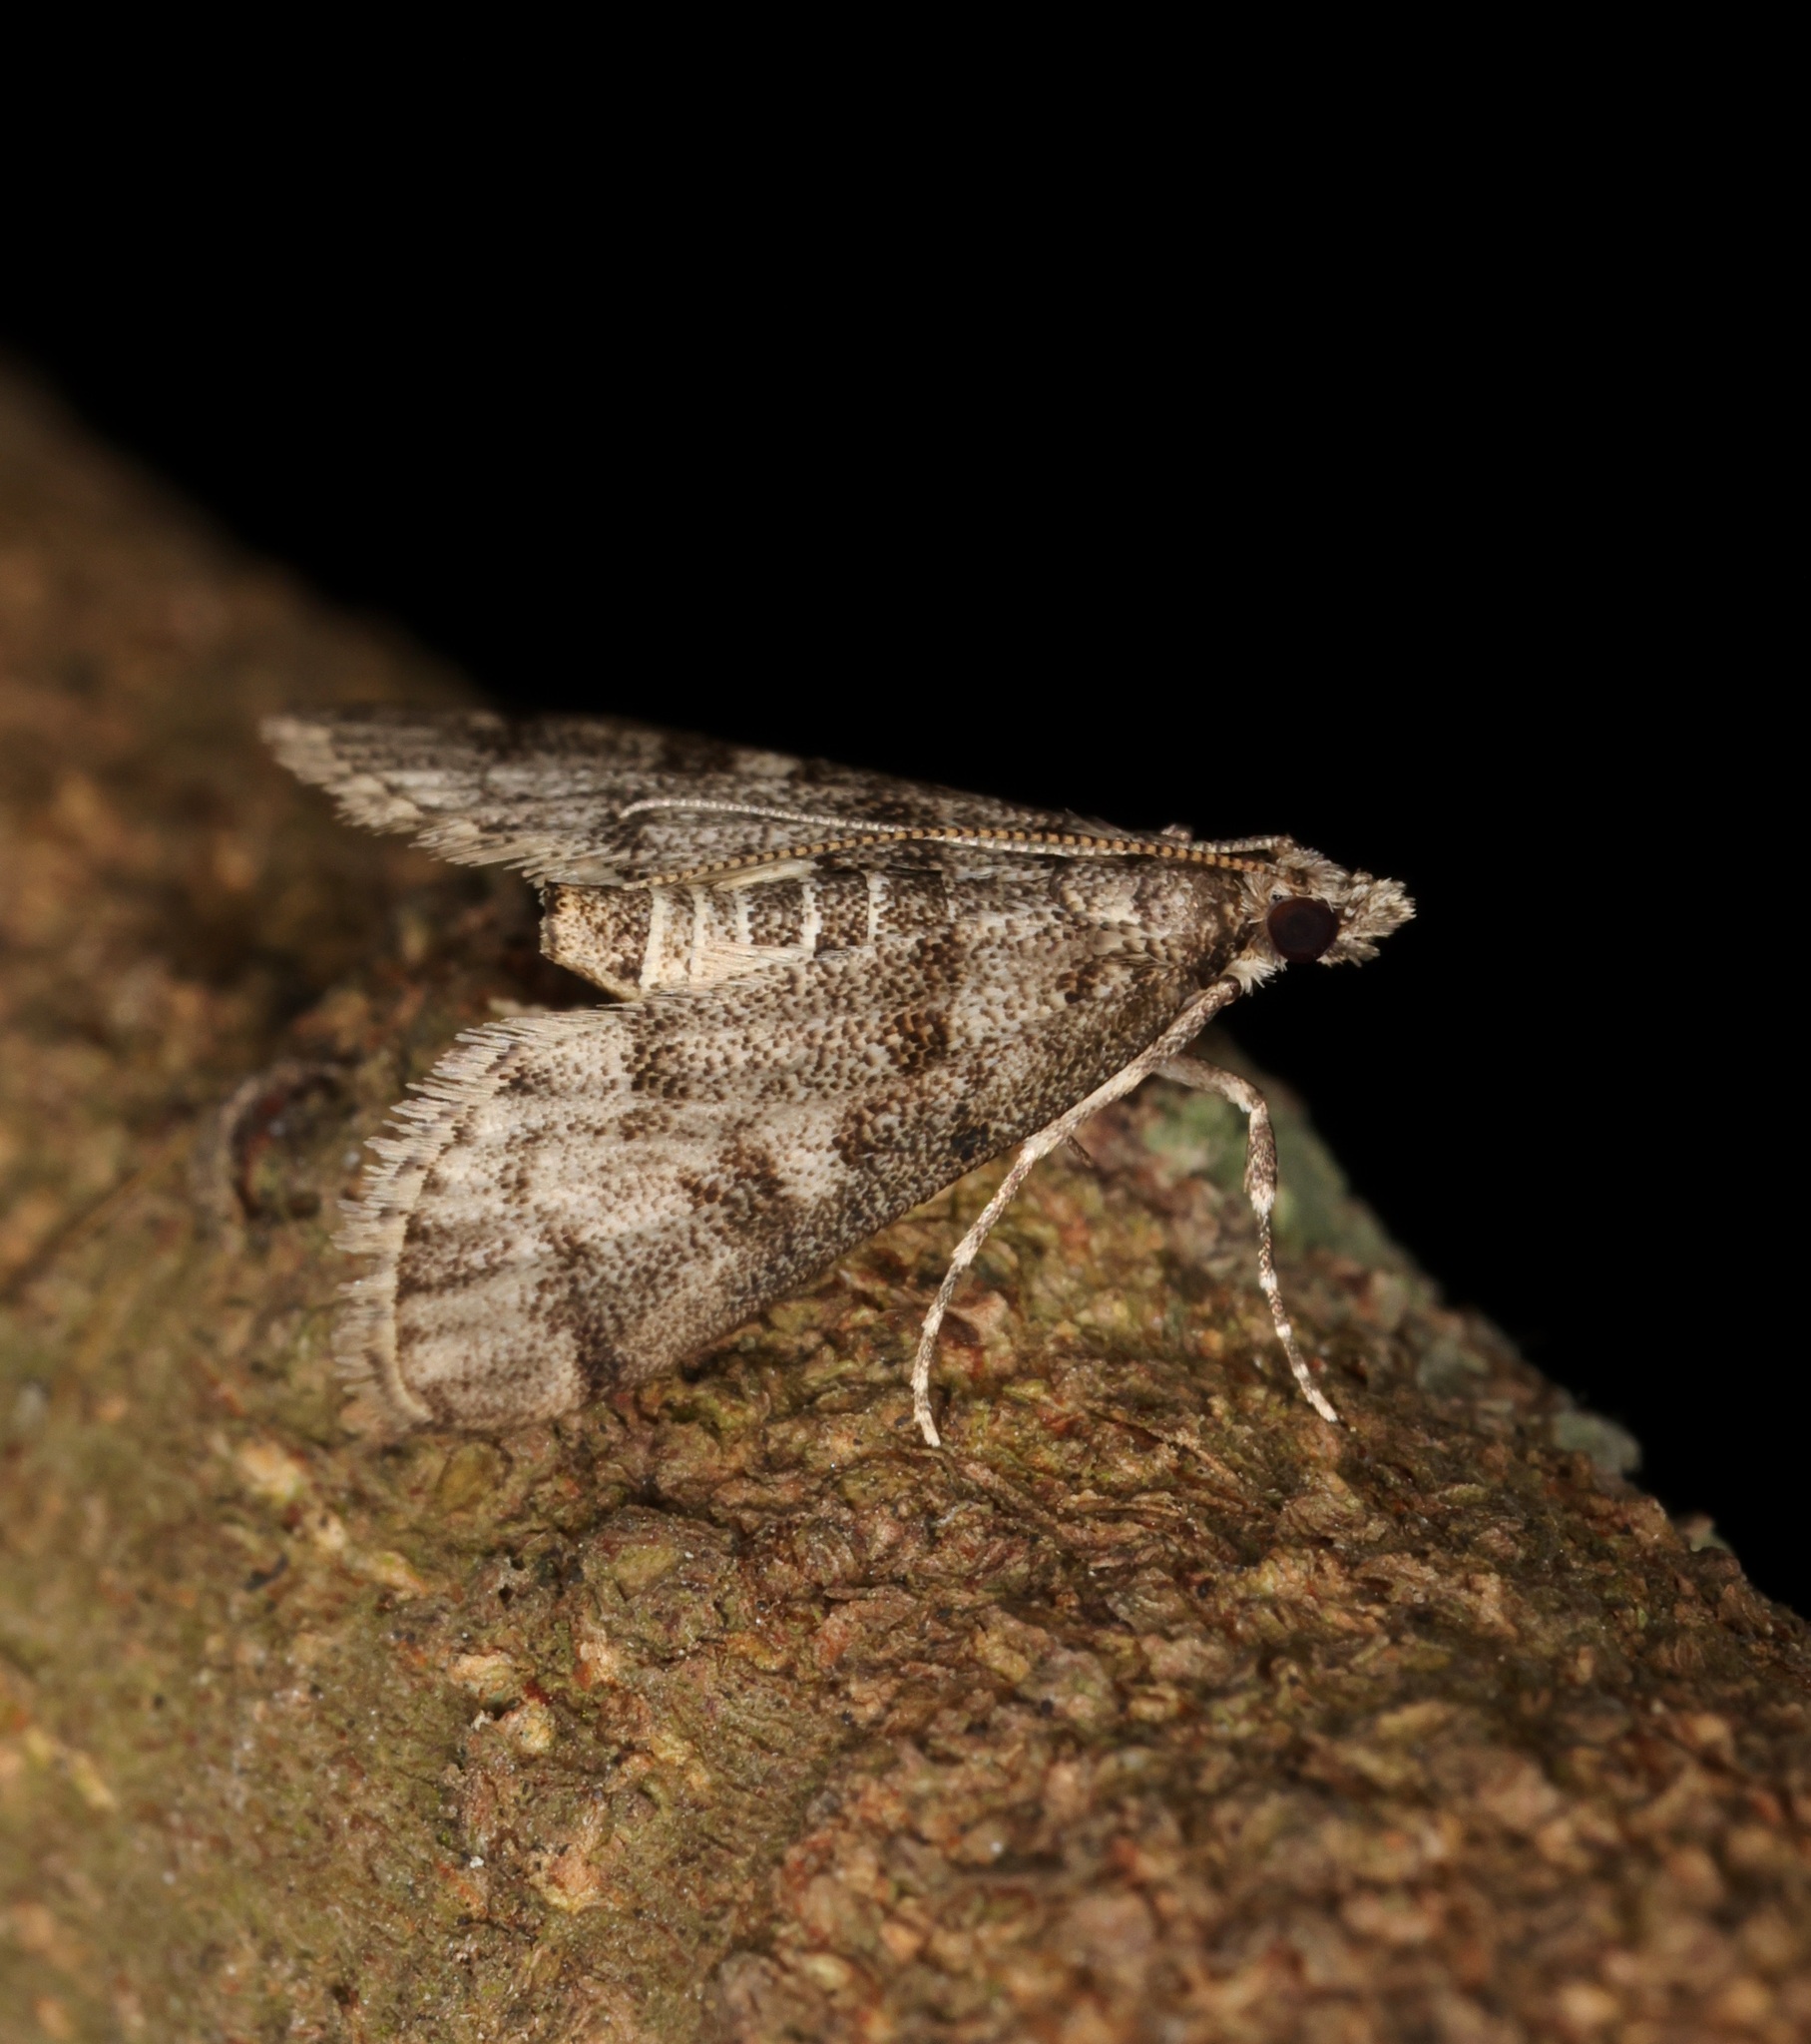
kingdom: Animalia
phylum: Arthropoda
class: Insecta
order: Lepidoptera
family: Crambidae
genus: Stenia
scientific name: Stenia Dolicharthria bruguieralis
